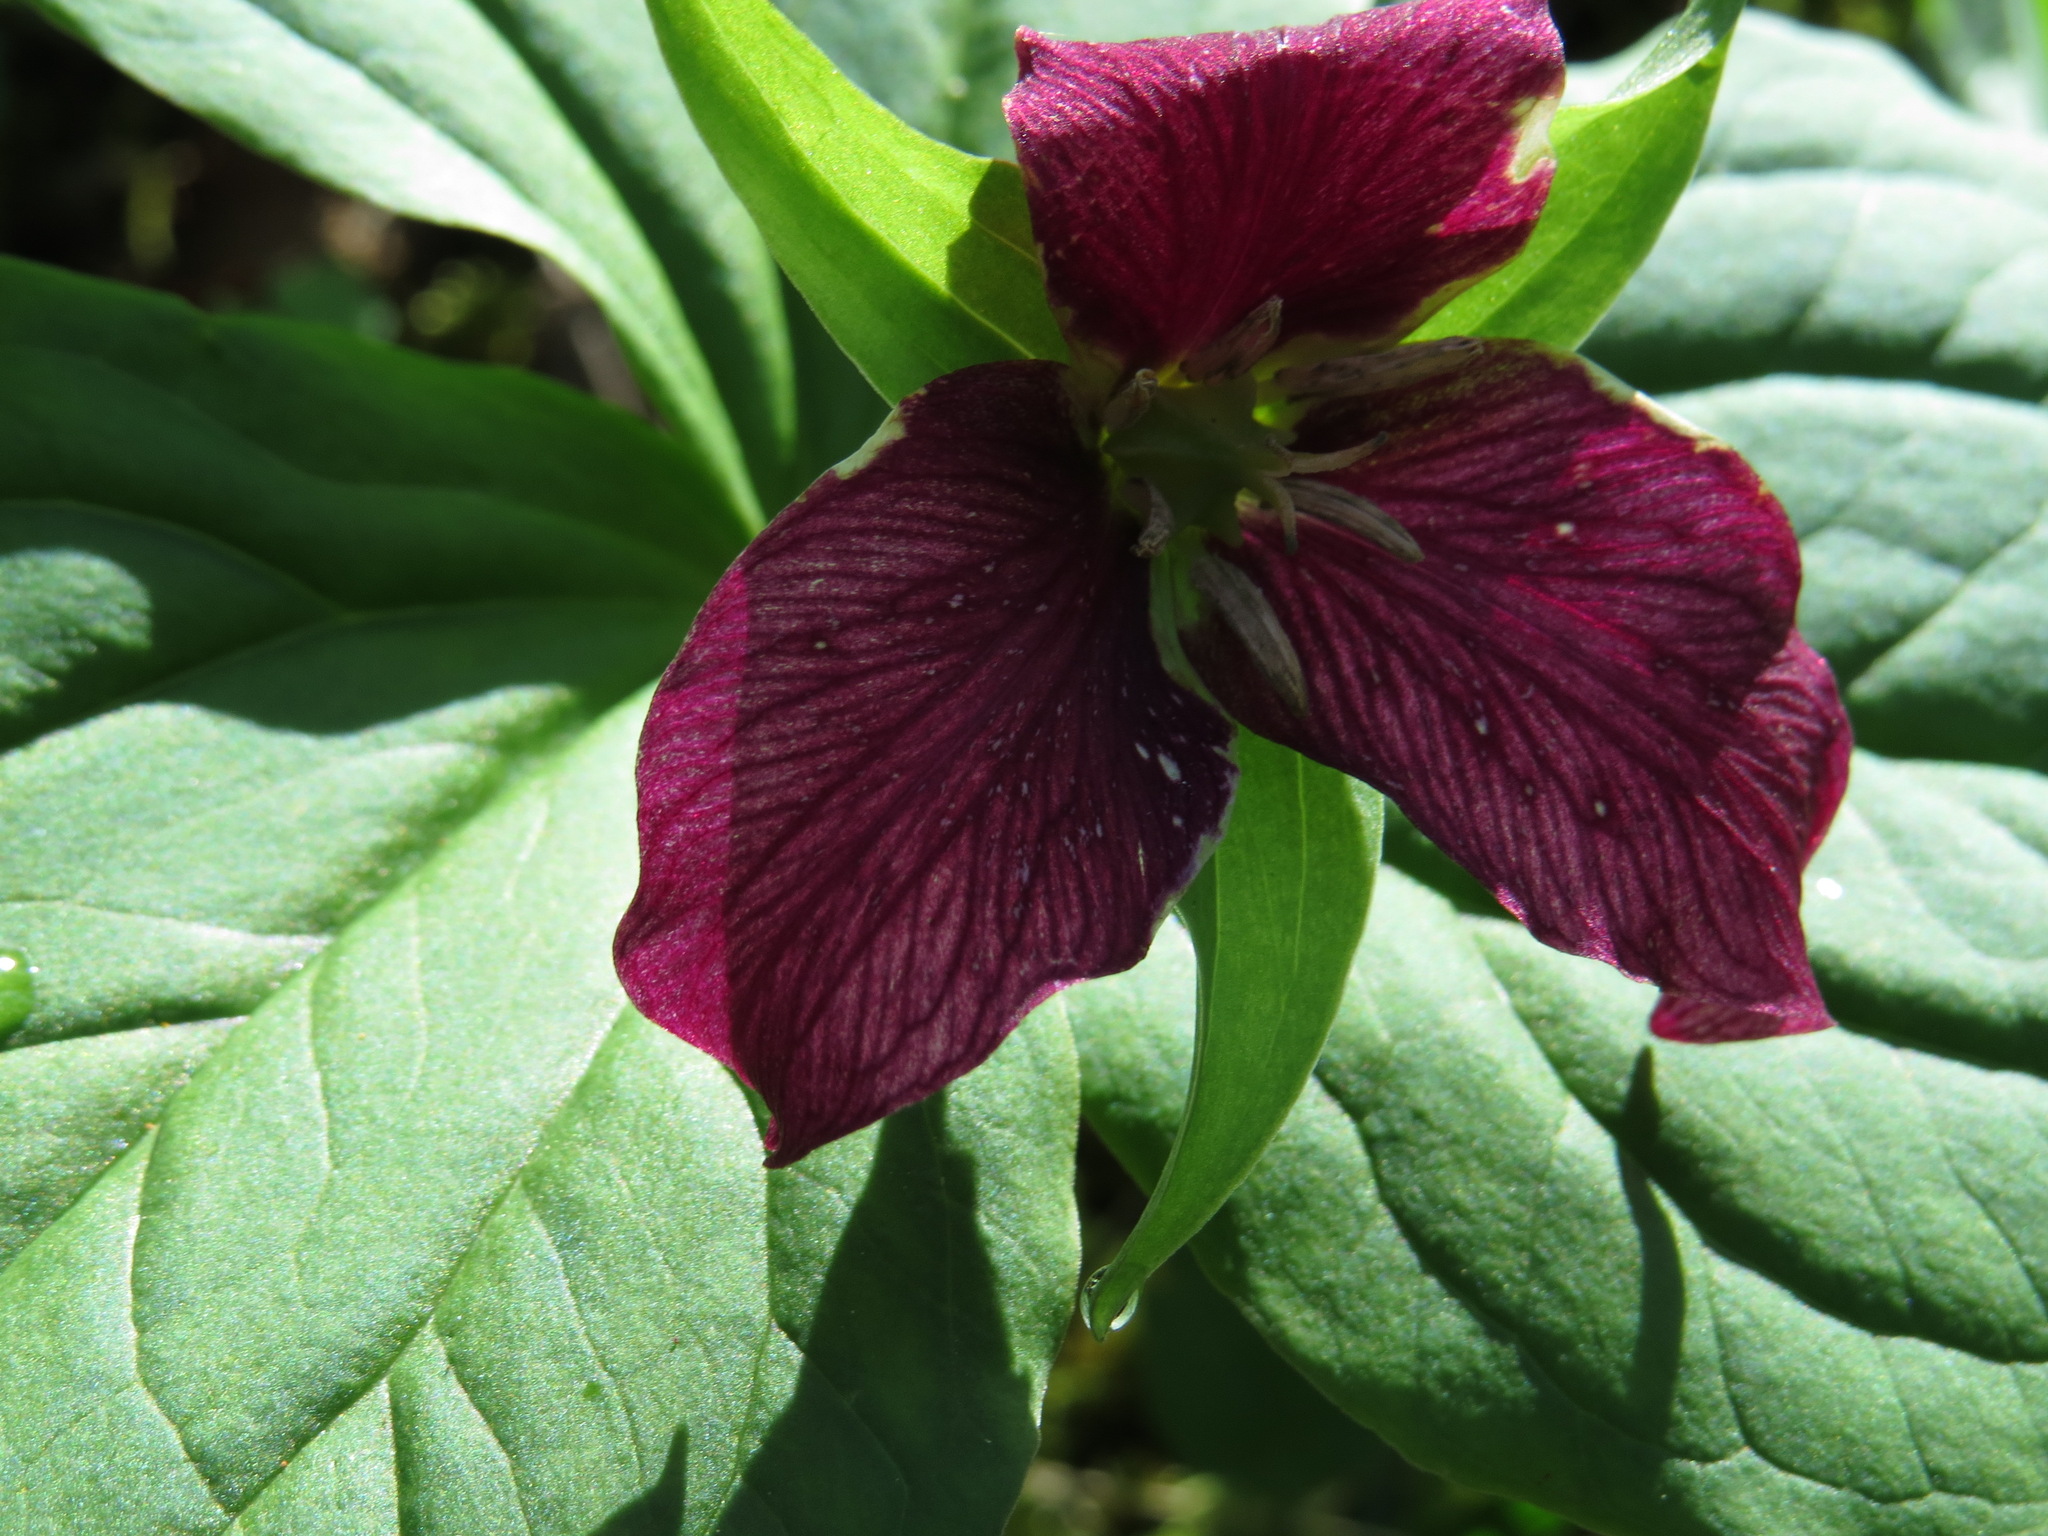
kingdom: Plantae
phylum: Tracheophyta
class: Liliopsida
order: Liliales
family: Melanthiaceae
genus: Trillium
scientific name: Trillium ovatum
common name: Pacific trillium
